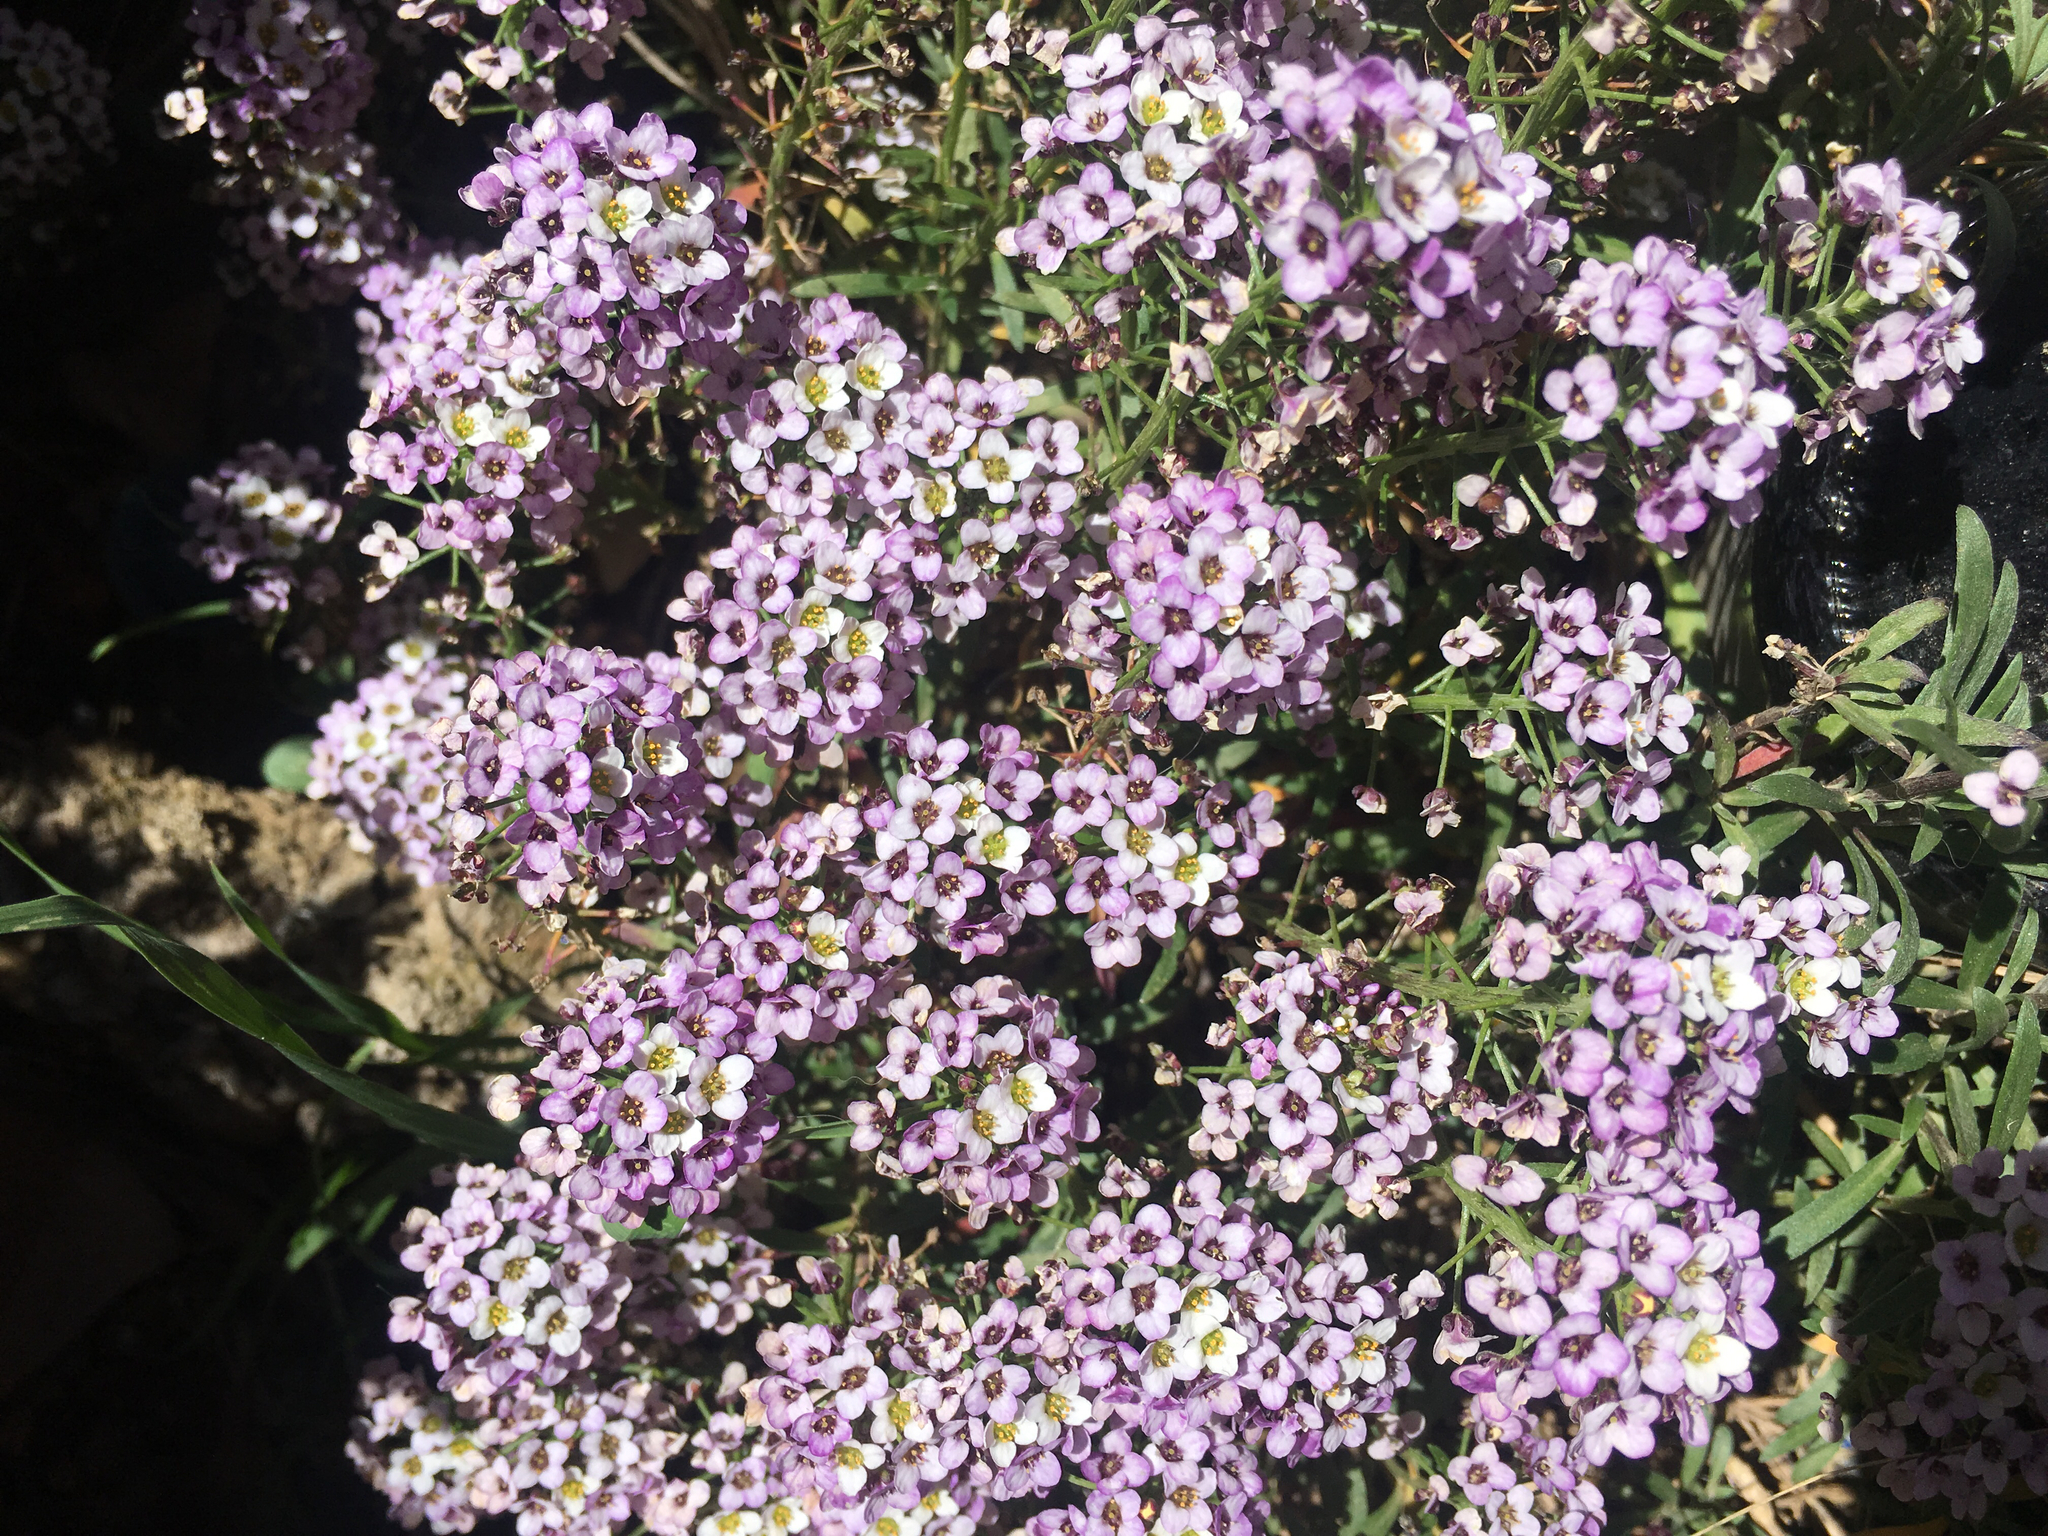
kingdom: Plantae
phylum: Tracheophyta
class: Magnoliopsida
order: Brassicales
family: Brassicaceae
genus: Lobularia
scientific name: Lobularia maritima
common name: Sweet alison
